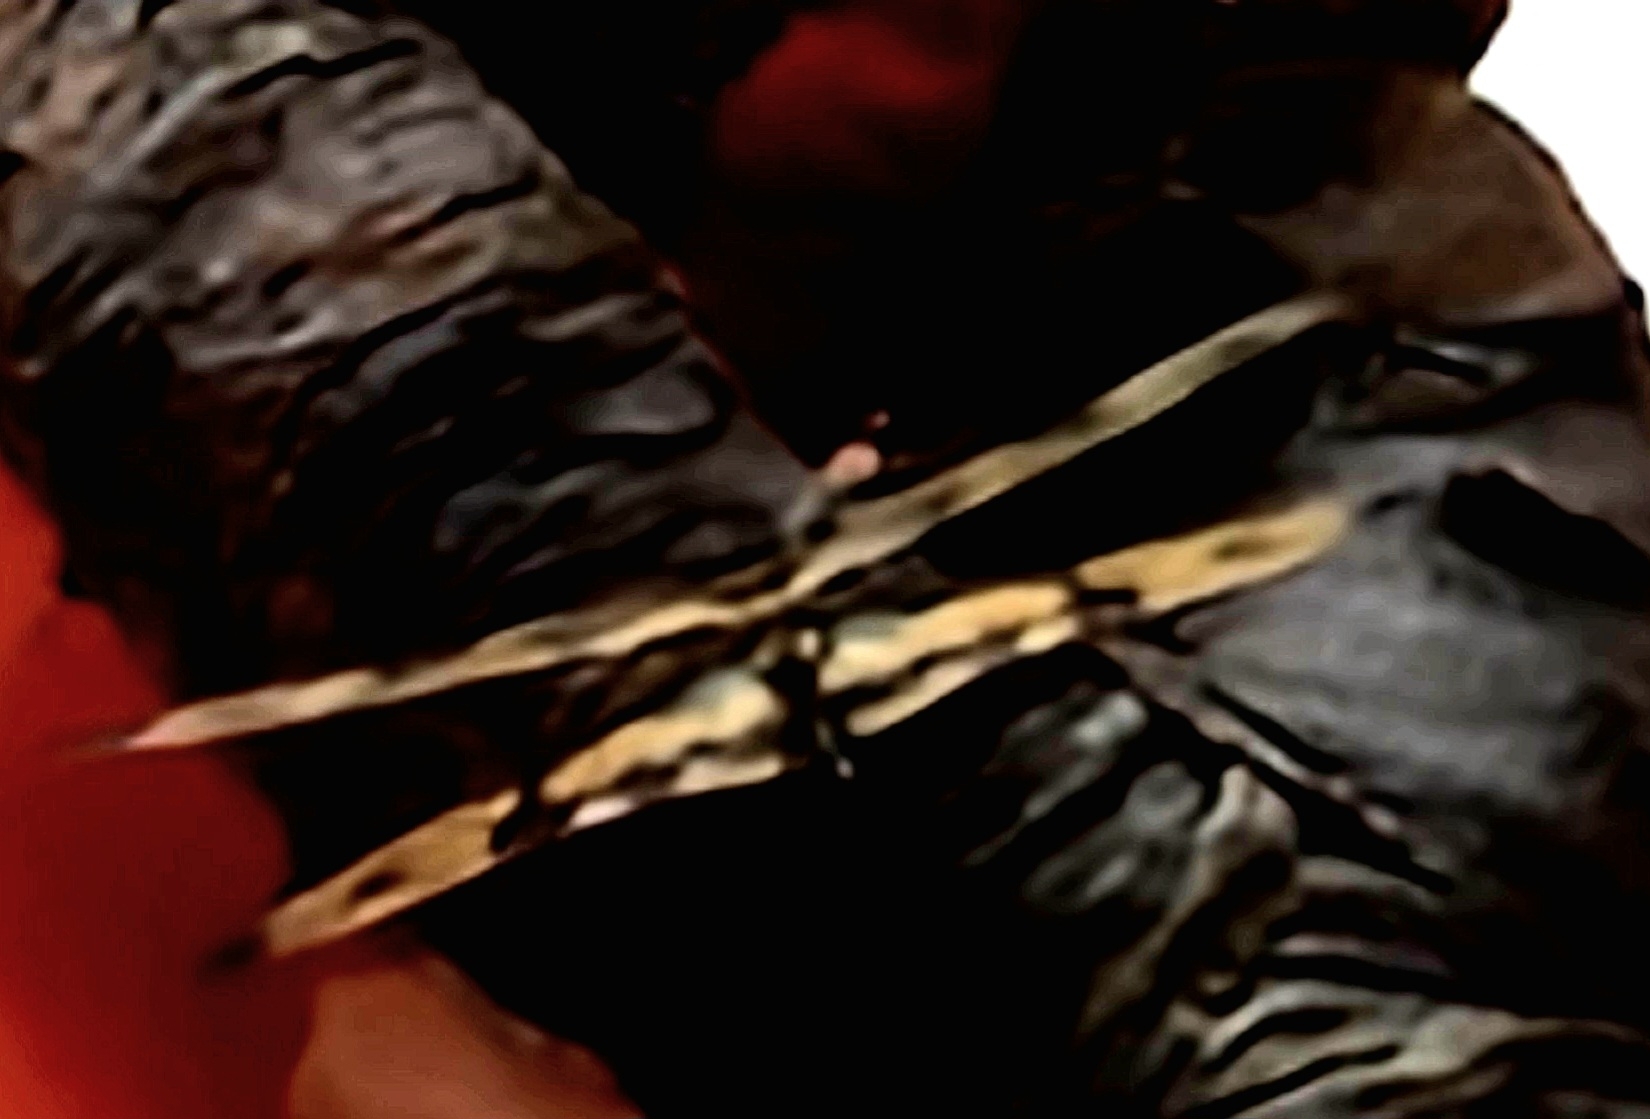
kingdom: Animalia
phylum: Arthropoda
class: Insecta
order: Odonata
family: Libellulidae
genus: Rhyothemis
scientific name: Rhyothemis variegata
